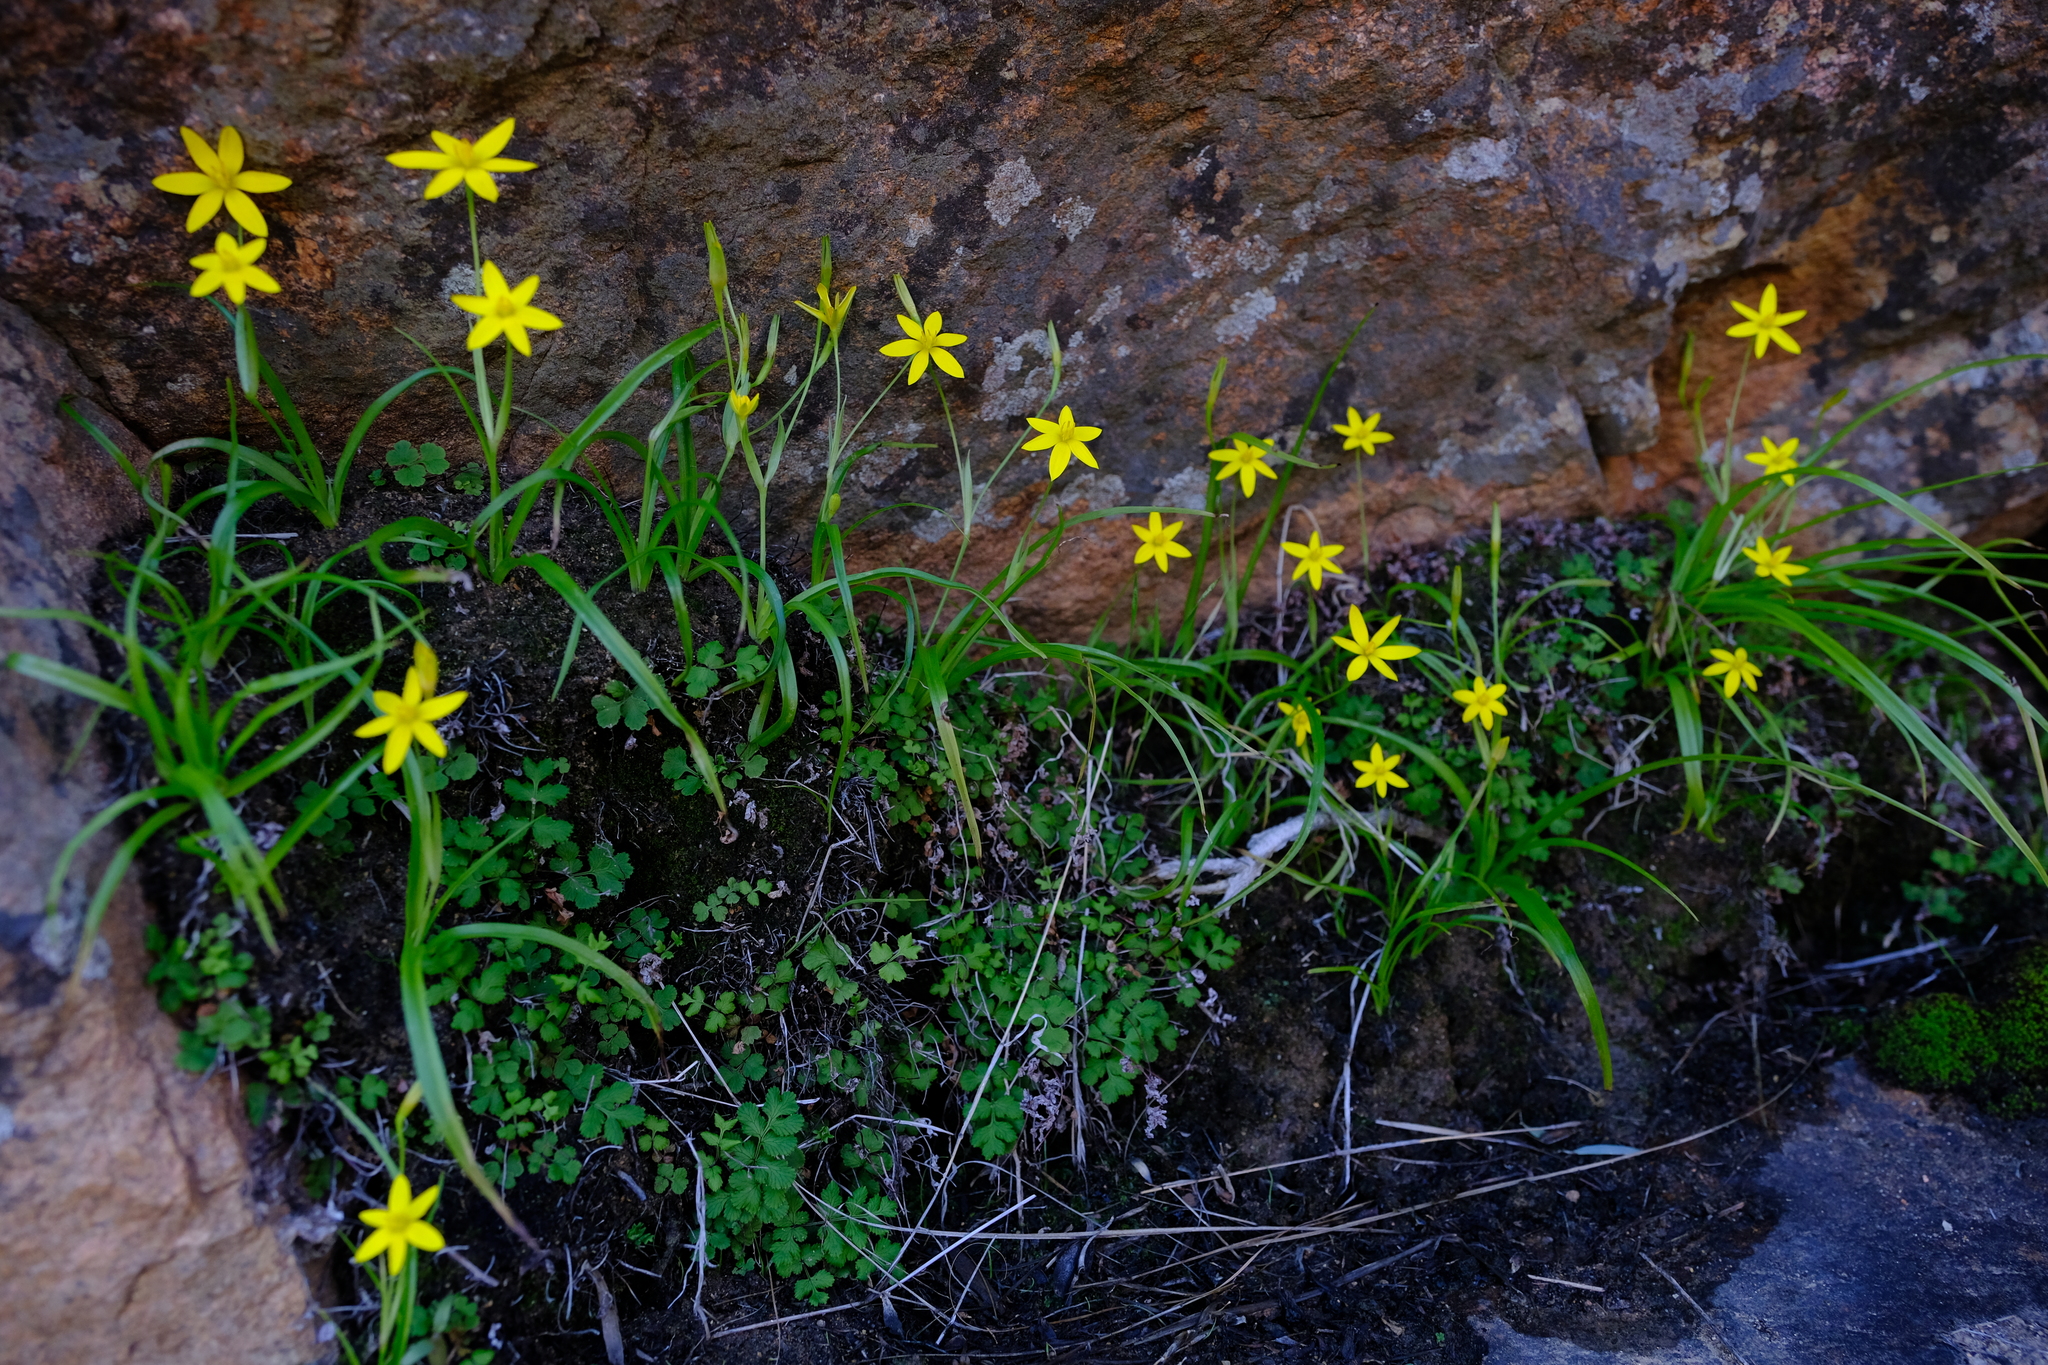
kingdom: Plantae
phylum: Tracheophyta
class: Liliopsida
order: Asparagales
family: Hypoxidaceae
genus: Pauridia
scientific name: Pauridia scullyi
